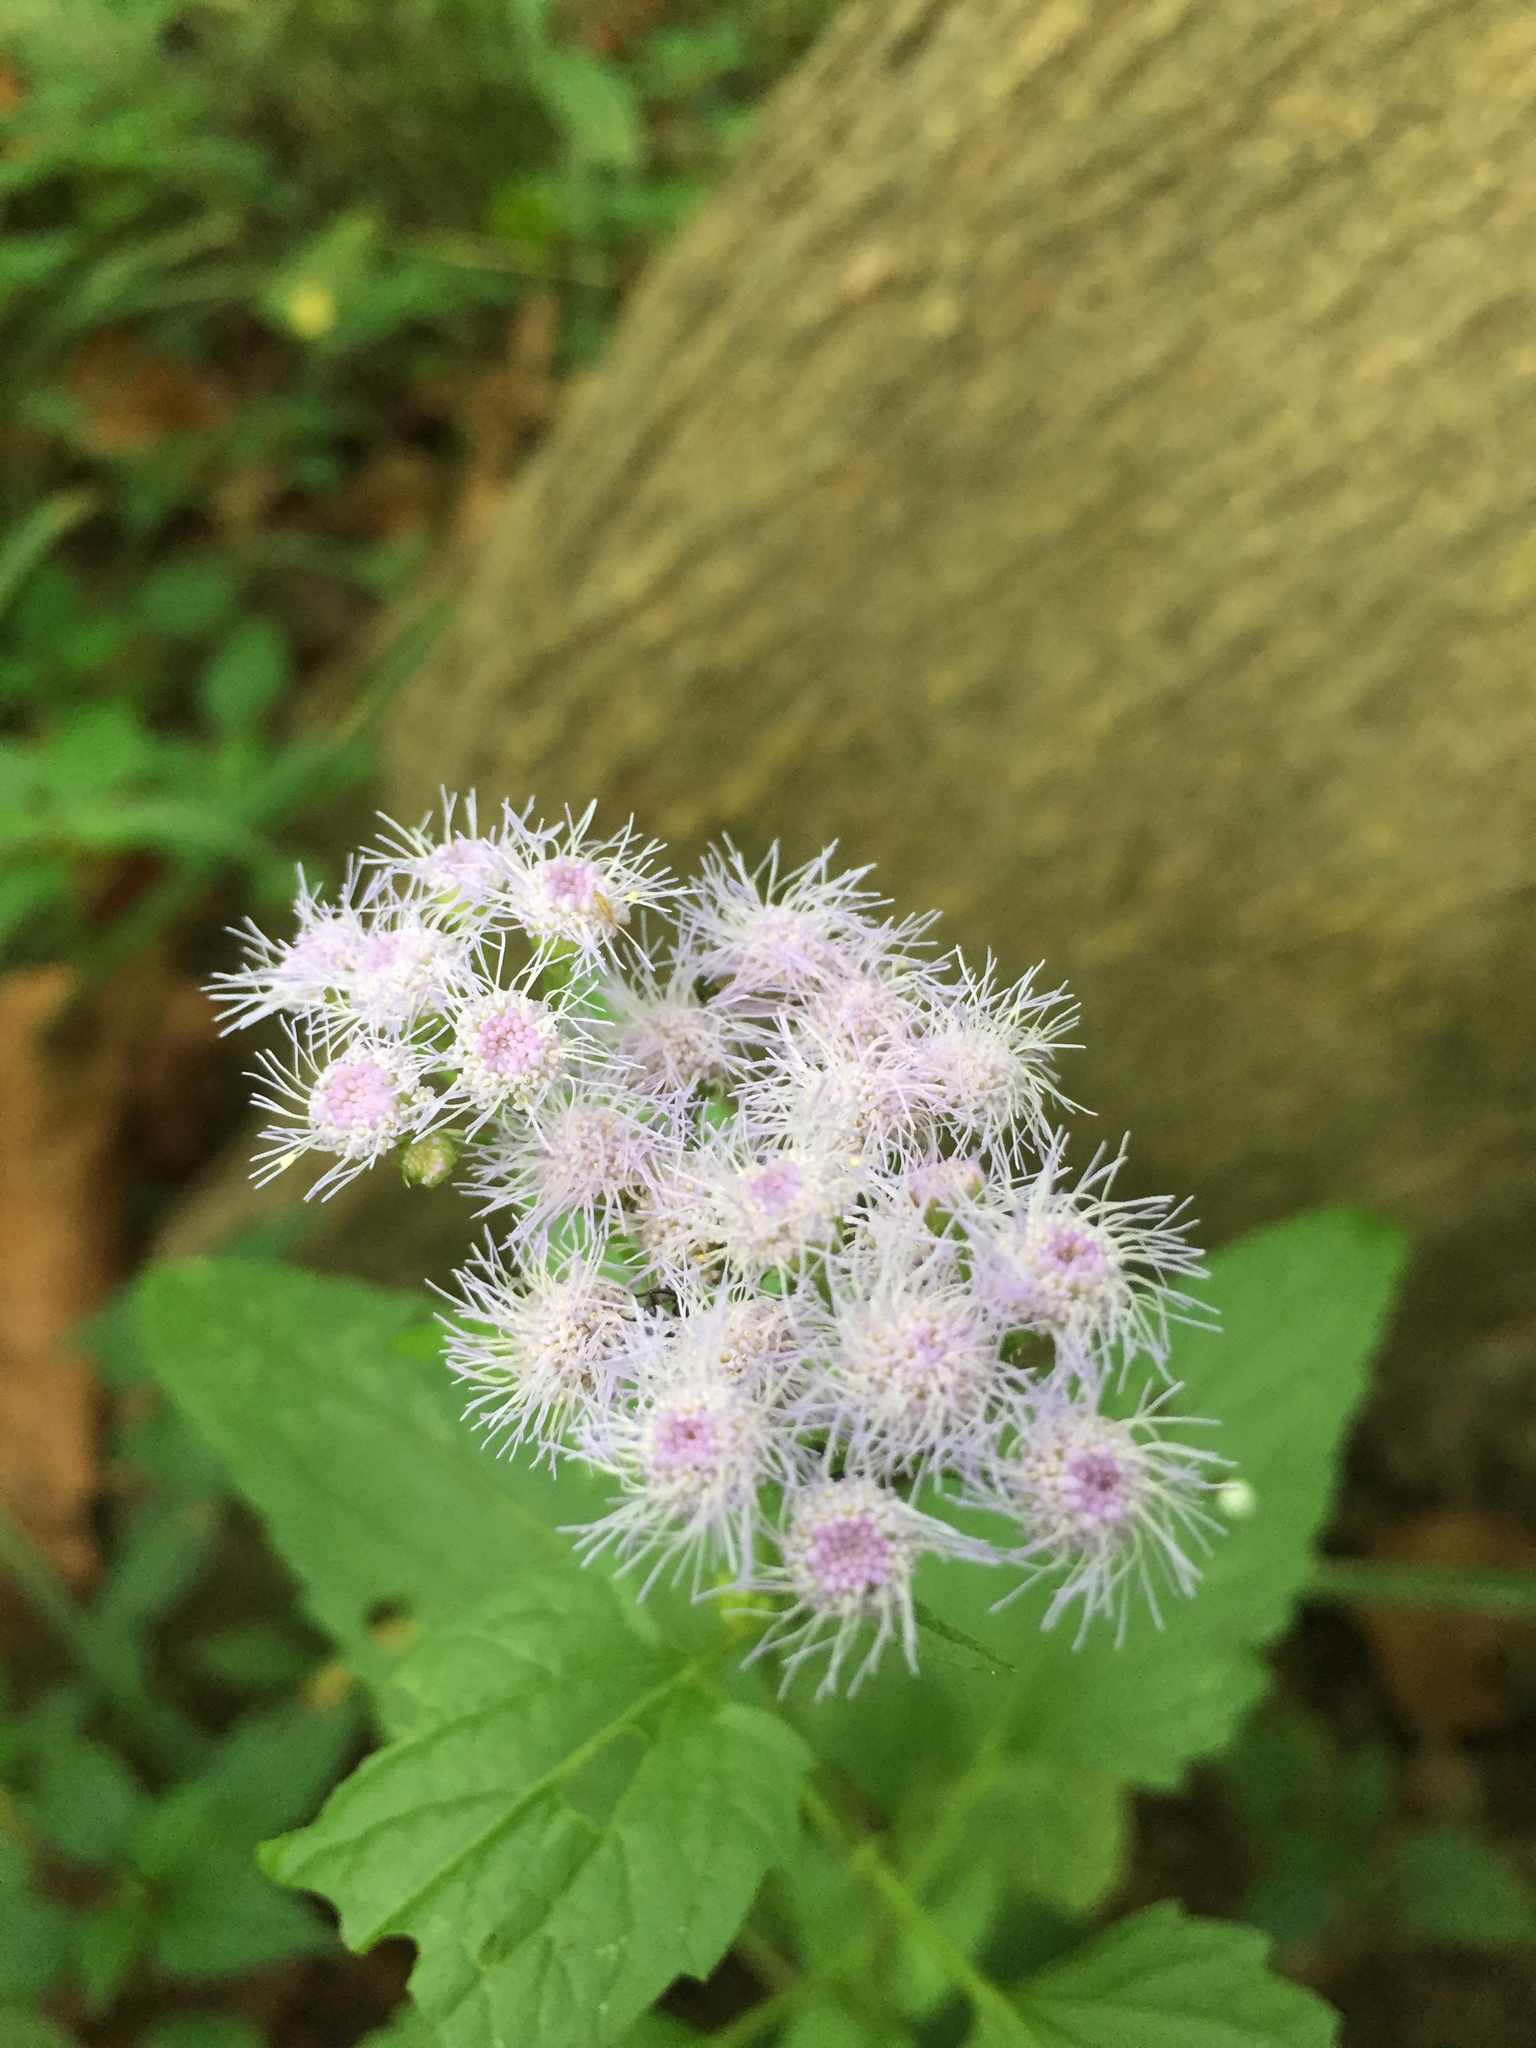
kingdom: Plantae
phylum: Tracheophyta
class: Magnoliopsida
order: Asterales
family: Asteraceae
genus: Conoclinium
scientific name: Conoclinium coelestinum
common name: Blue mistflower
